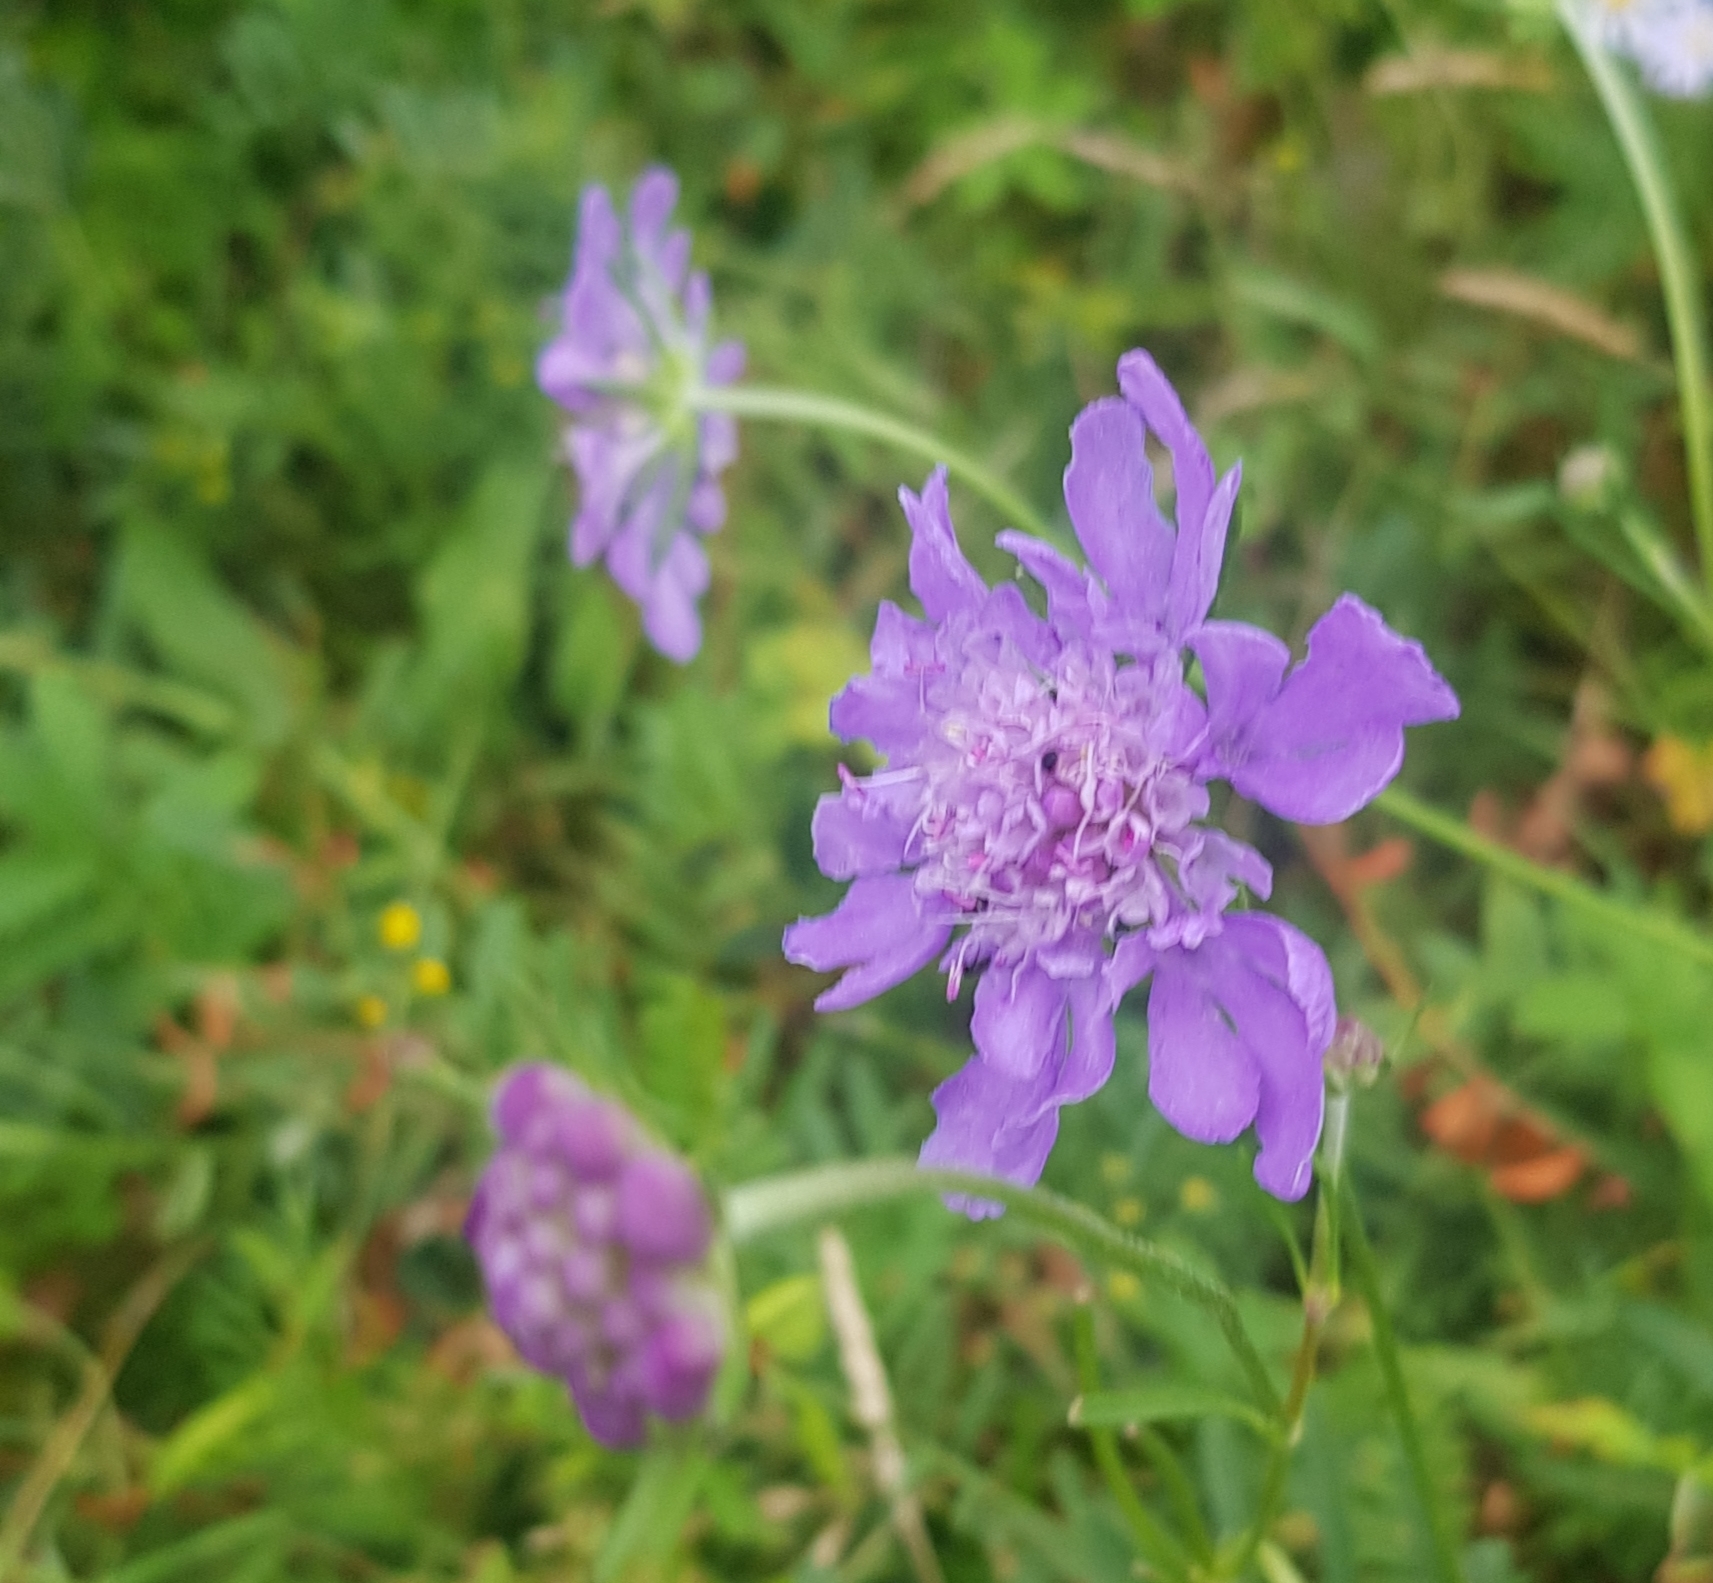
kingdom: Plantae
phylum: Tracheophyta
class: Magnoliopsida
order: Dipsacales
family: Caprifoliaceae
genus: Scabiosa
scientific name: Scabiosa comosa
